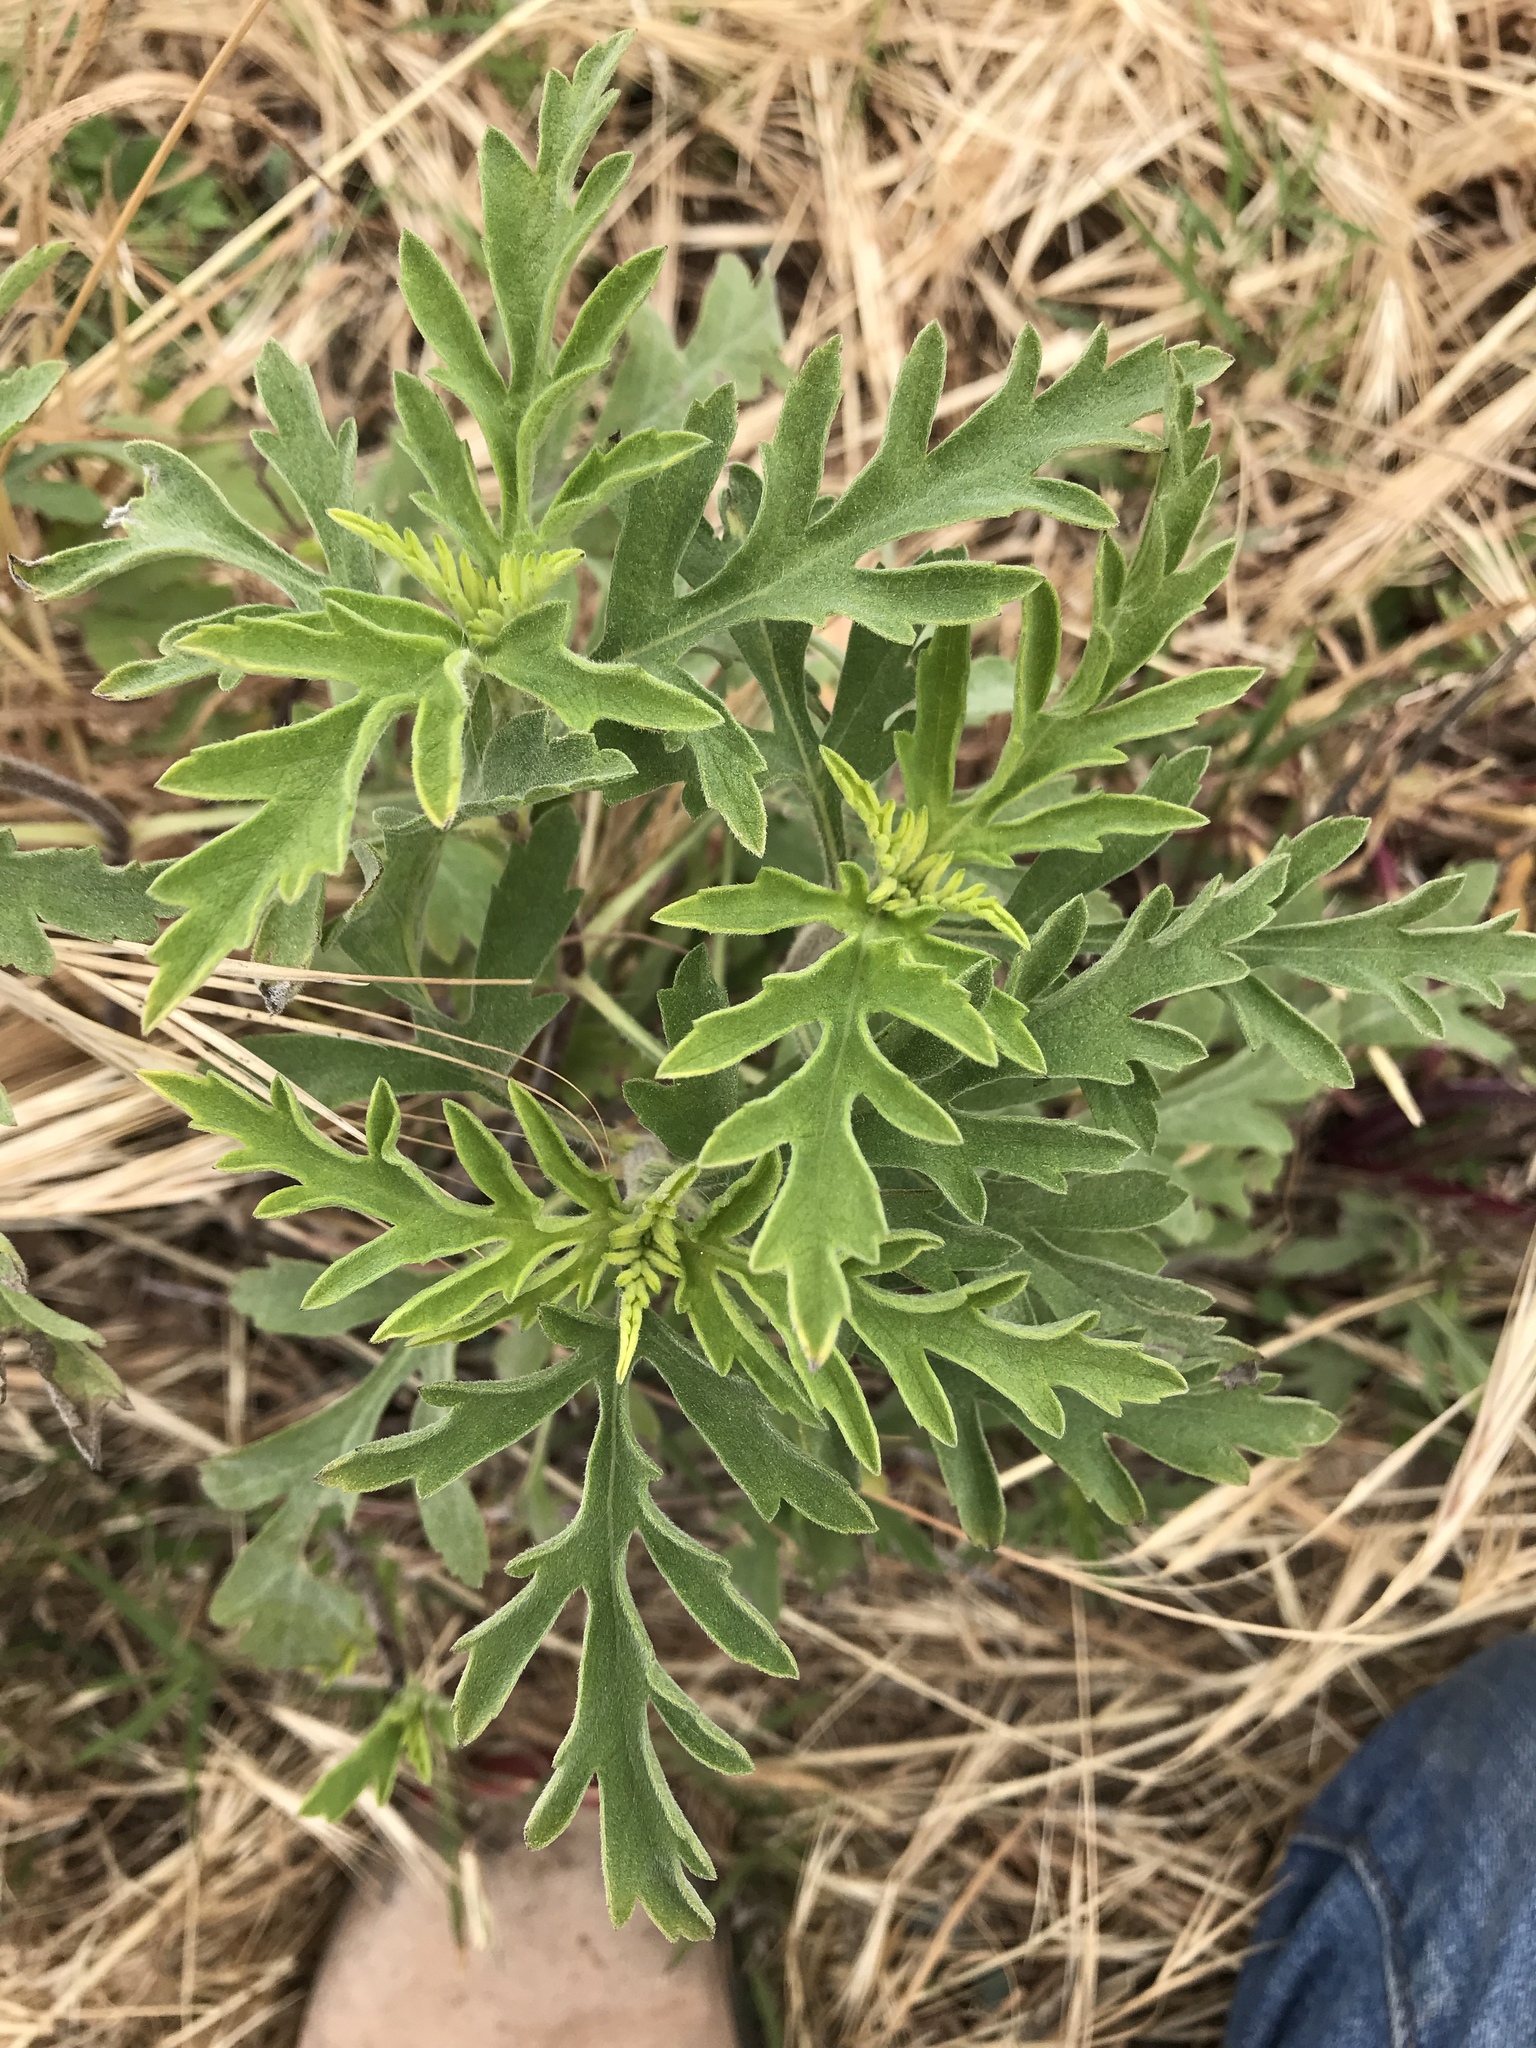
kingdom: Plantae
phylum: Tracheophyta
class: Magnoliopsida
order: Asterales
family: Asteraceae
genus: Ambrosia
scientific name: Ambrosia psilostachya
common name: Perennial ragweed
